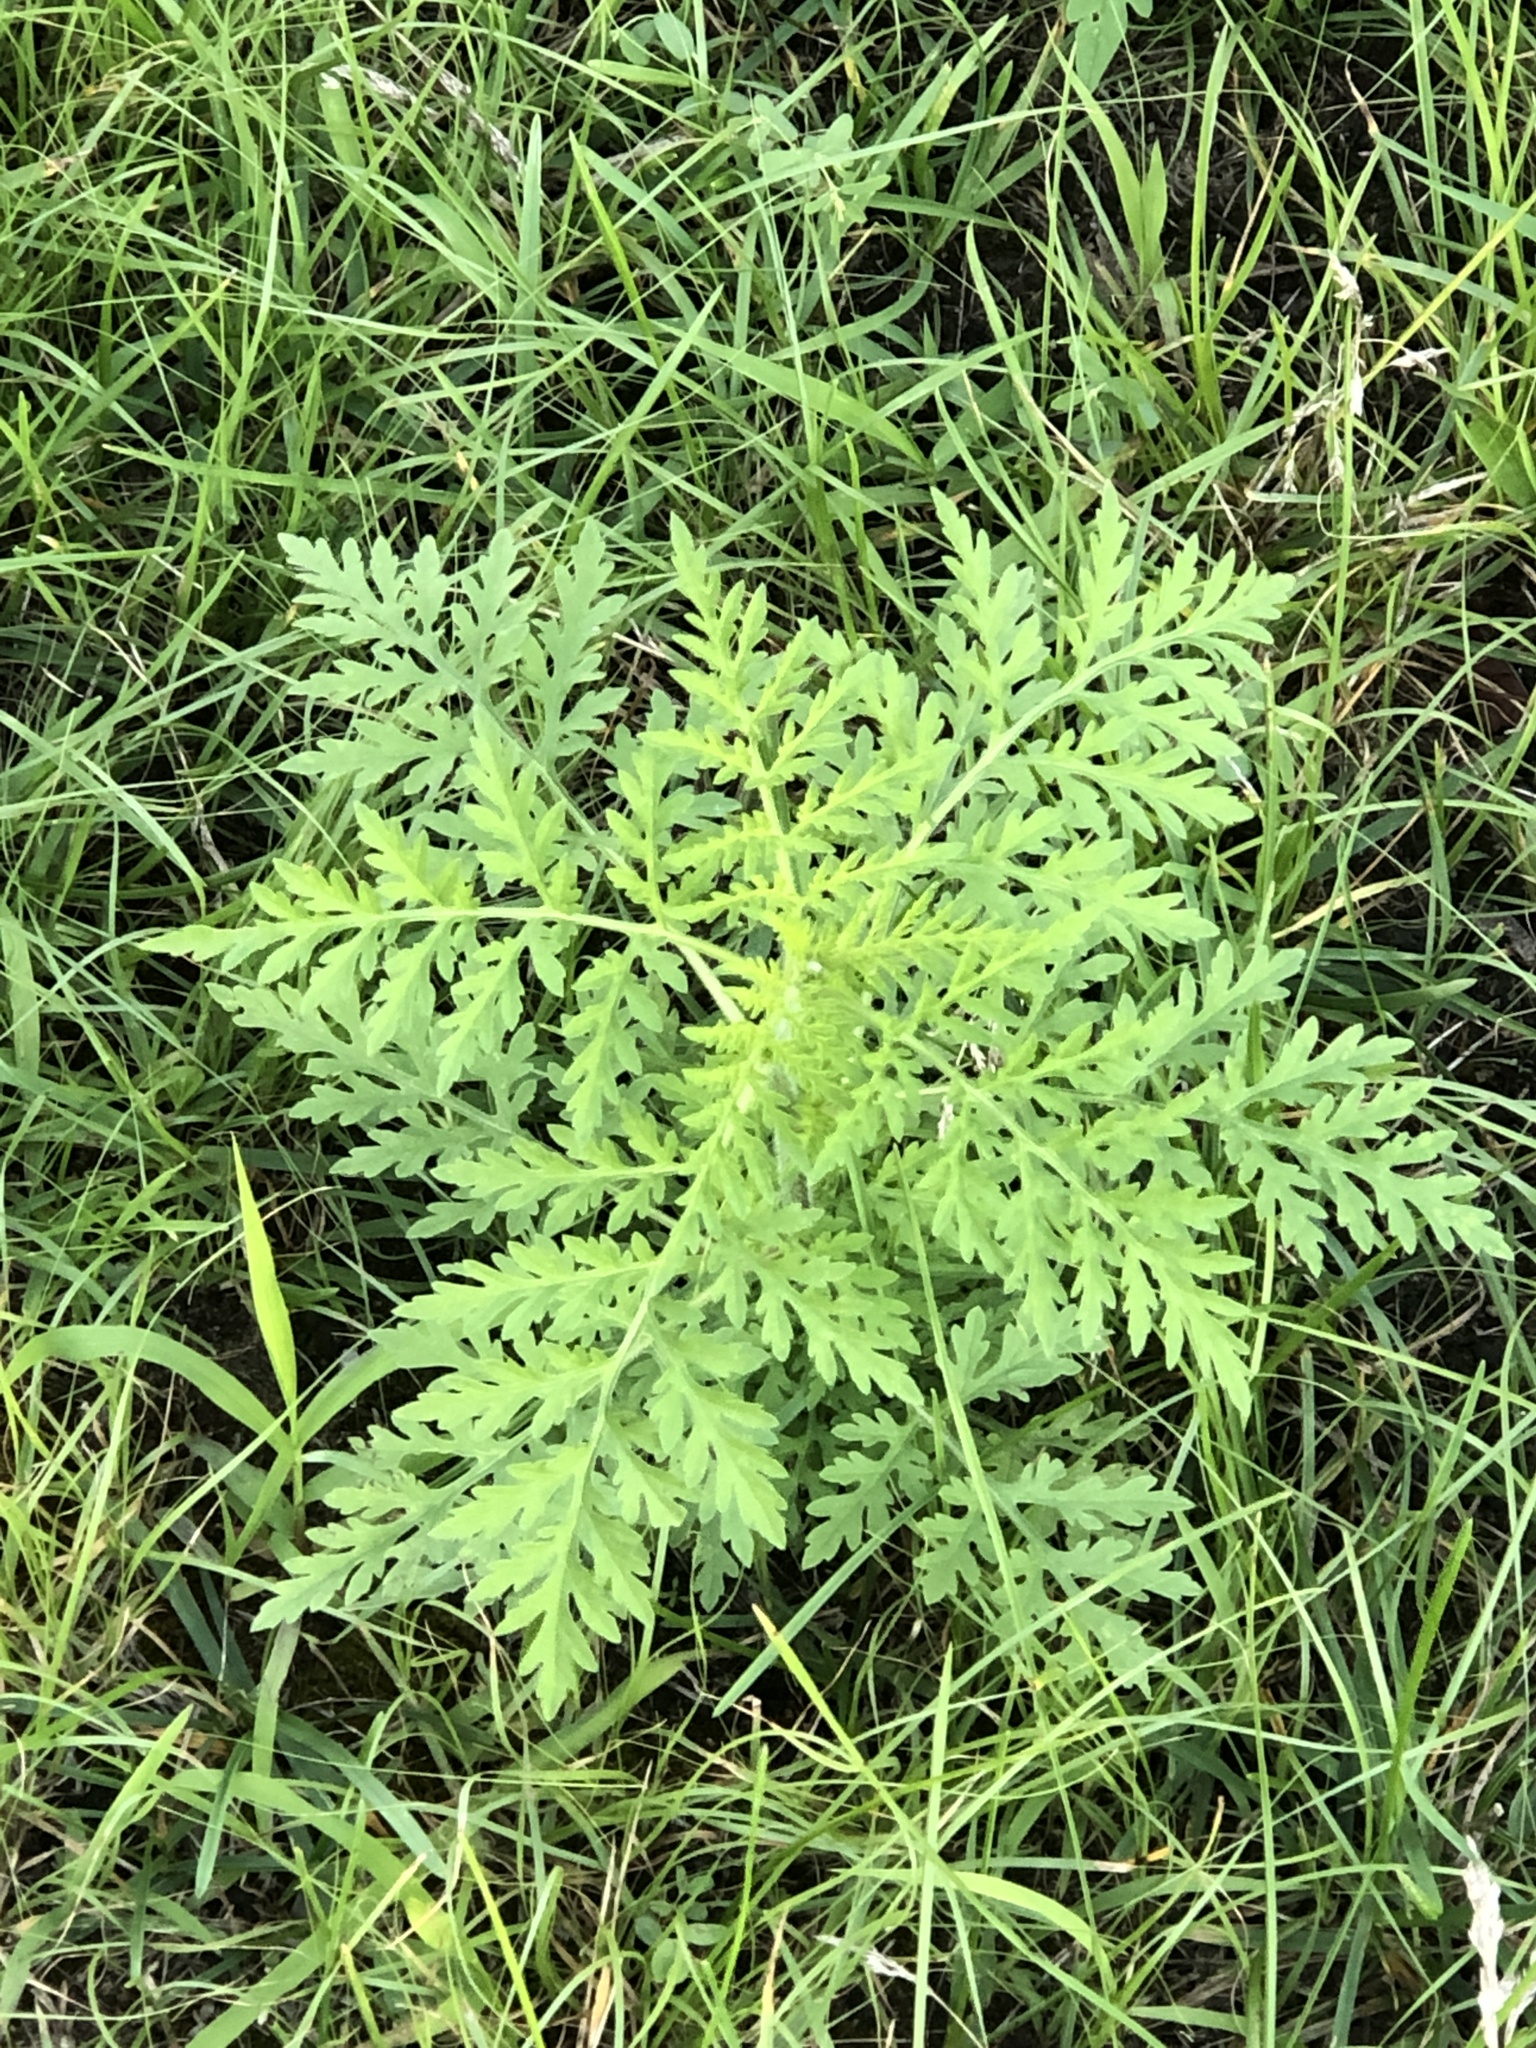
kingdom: Plantae
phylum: Tracheophyta
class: Magnoliopsida
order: Asterales
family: Asteraceae
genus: Ambrosia
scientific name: Ambrosia artemisiifolia
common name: Annual ragweed
